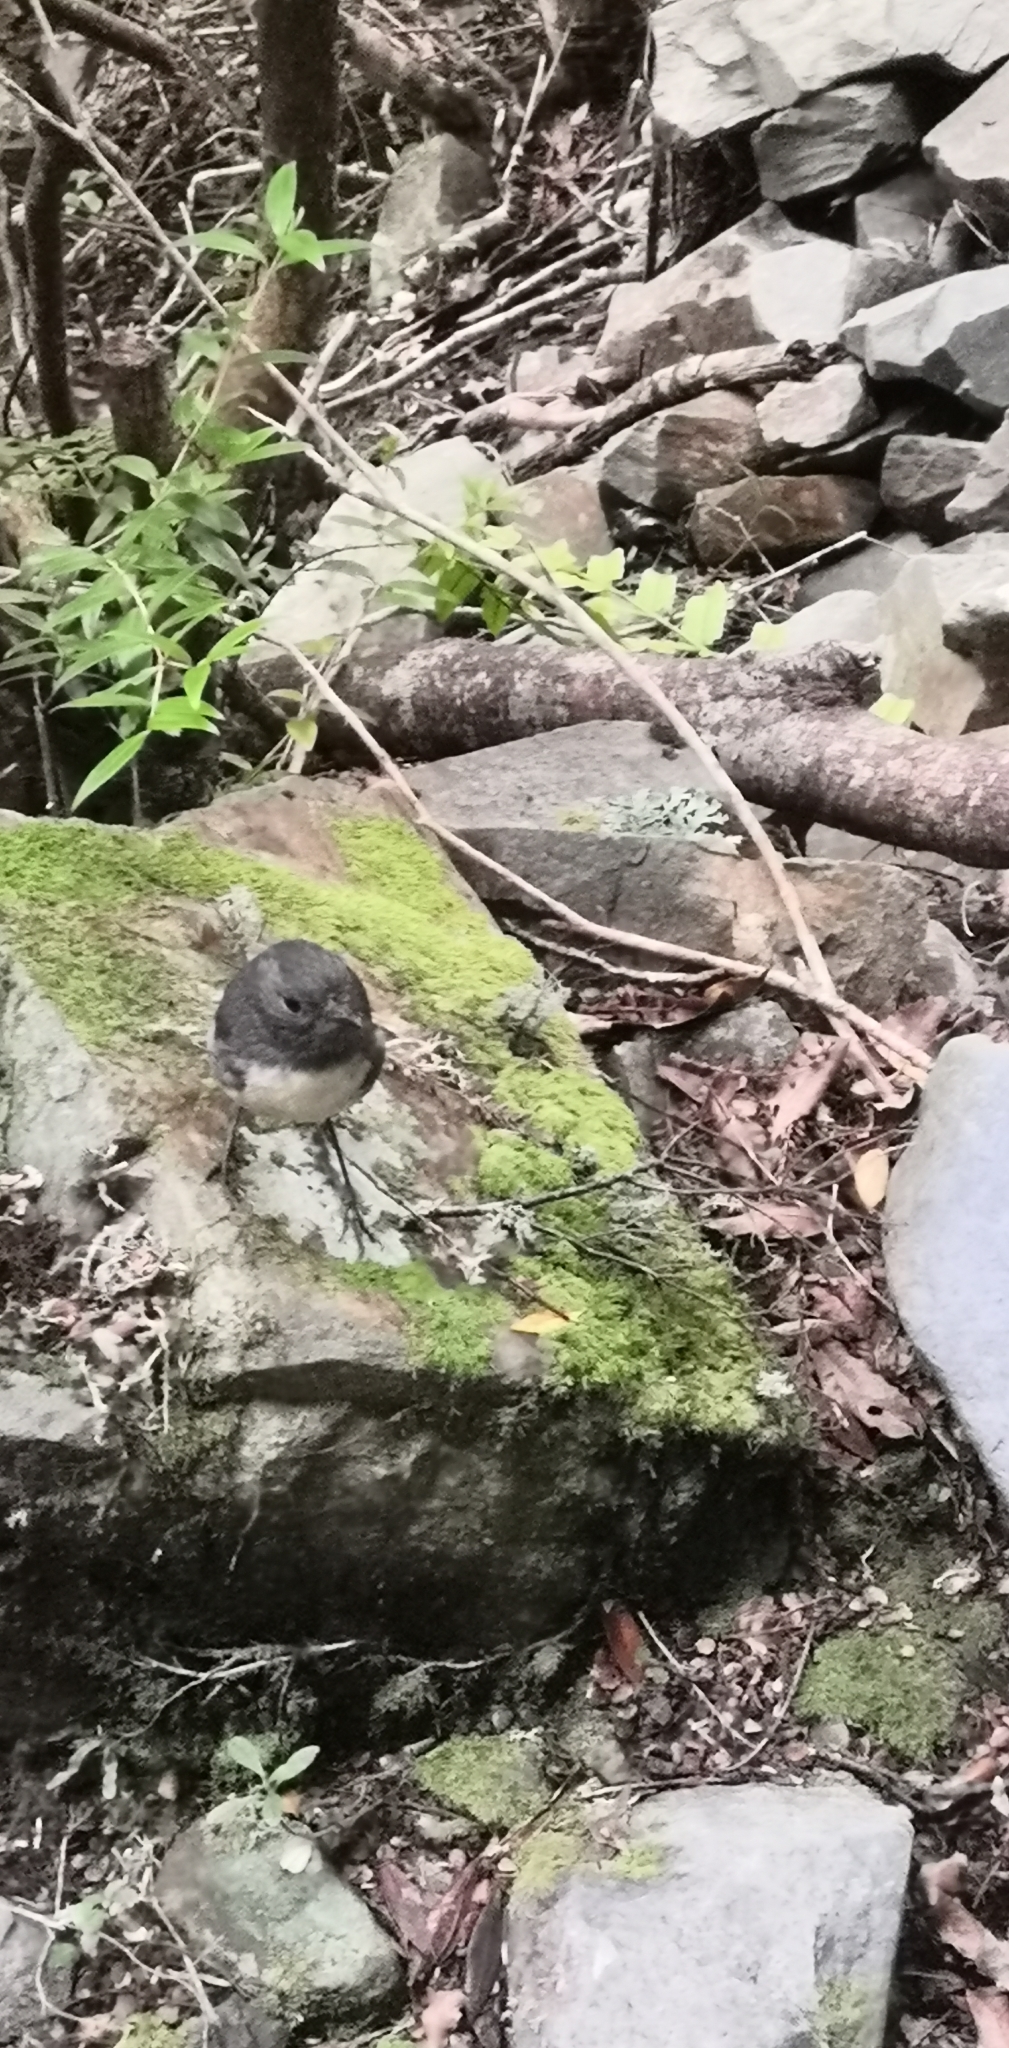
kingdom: Animalia
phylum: Chordata
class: Aves
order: Passeriformes
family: Petroicidae
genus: Petroica
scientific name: Petroica australis
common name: New zealand robin
